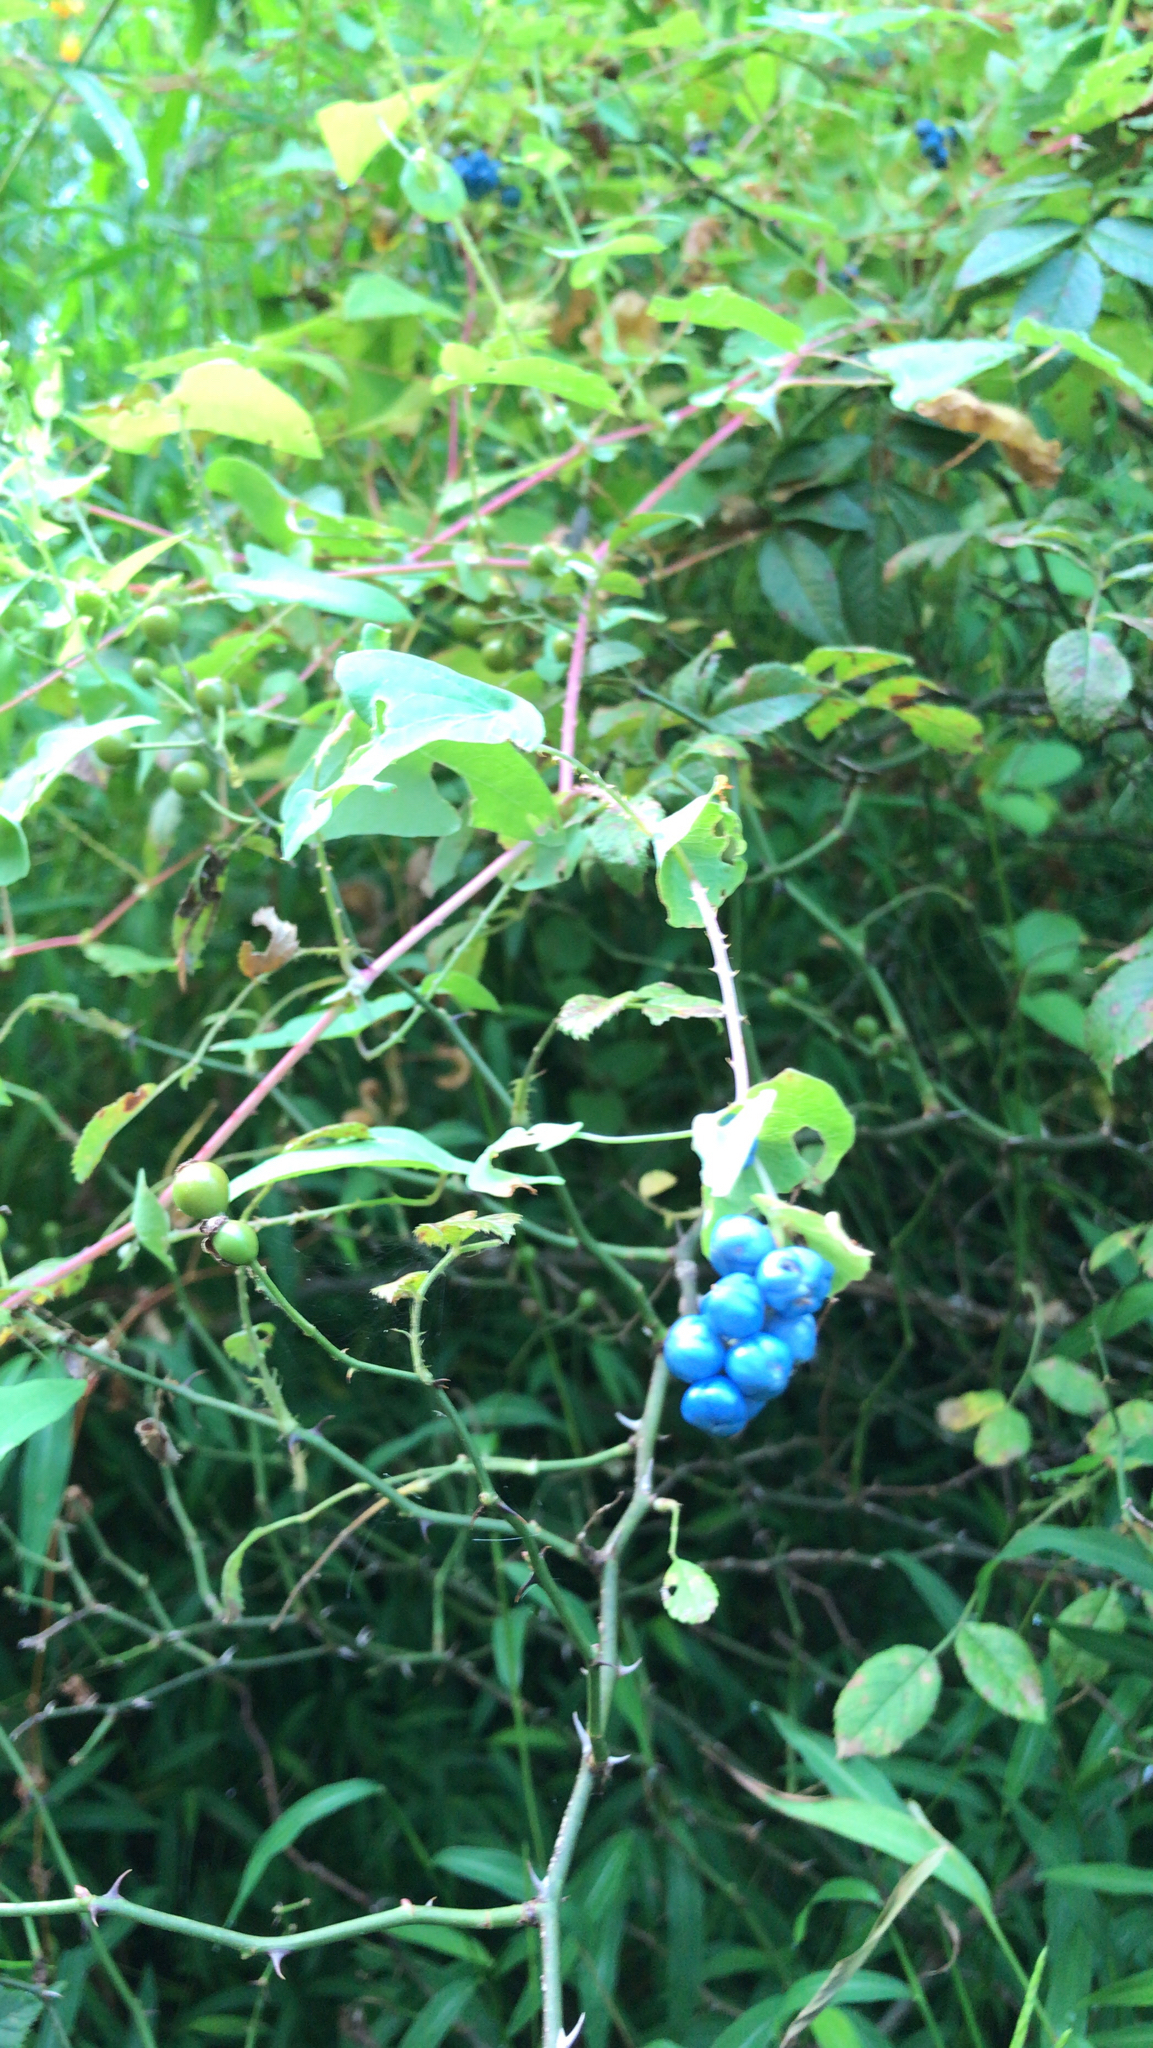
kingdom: Plantae
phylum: Tracheophyta
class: Magnoliopsida
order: Caryophyllales
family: Polygonaceae
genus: Persicaria
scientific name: Persicaria perfoliata
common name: Asiatic tearthumb
